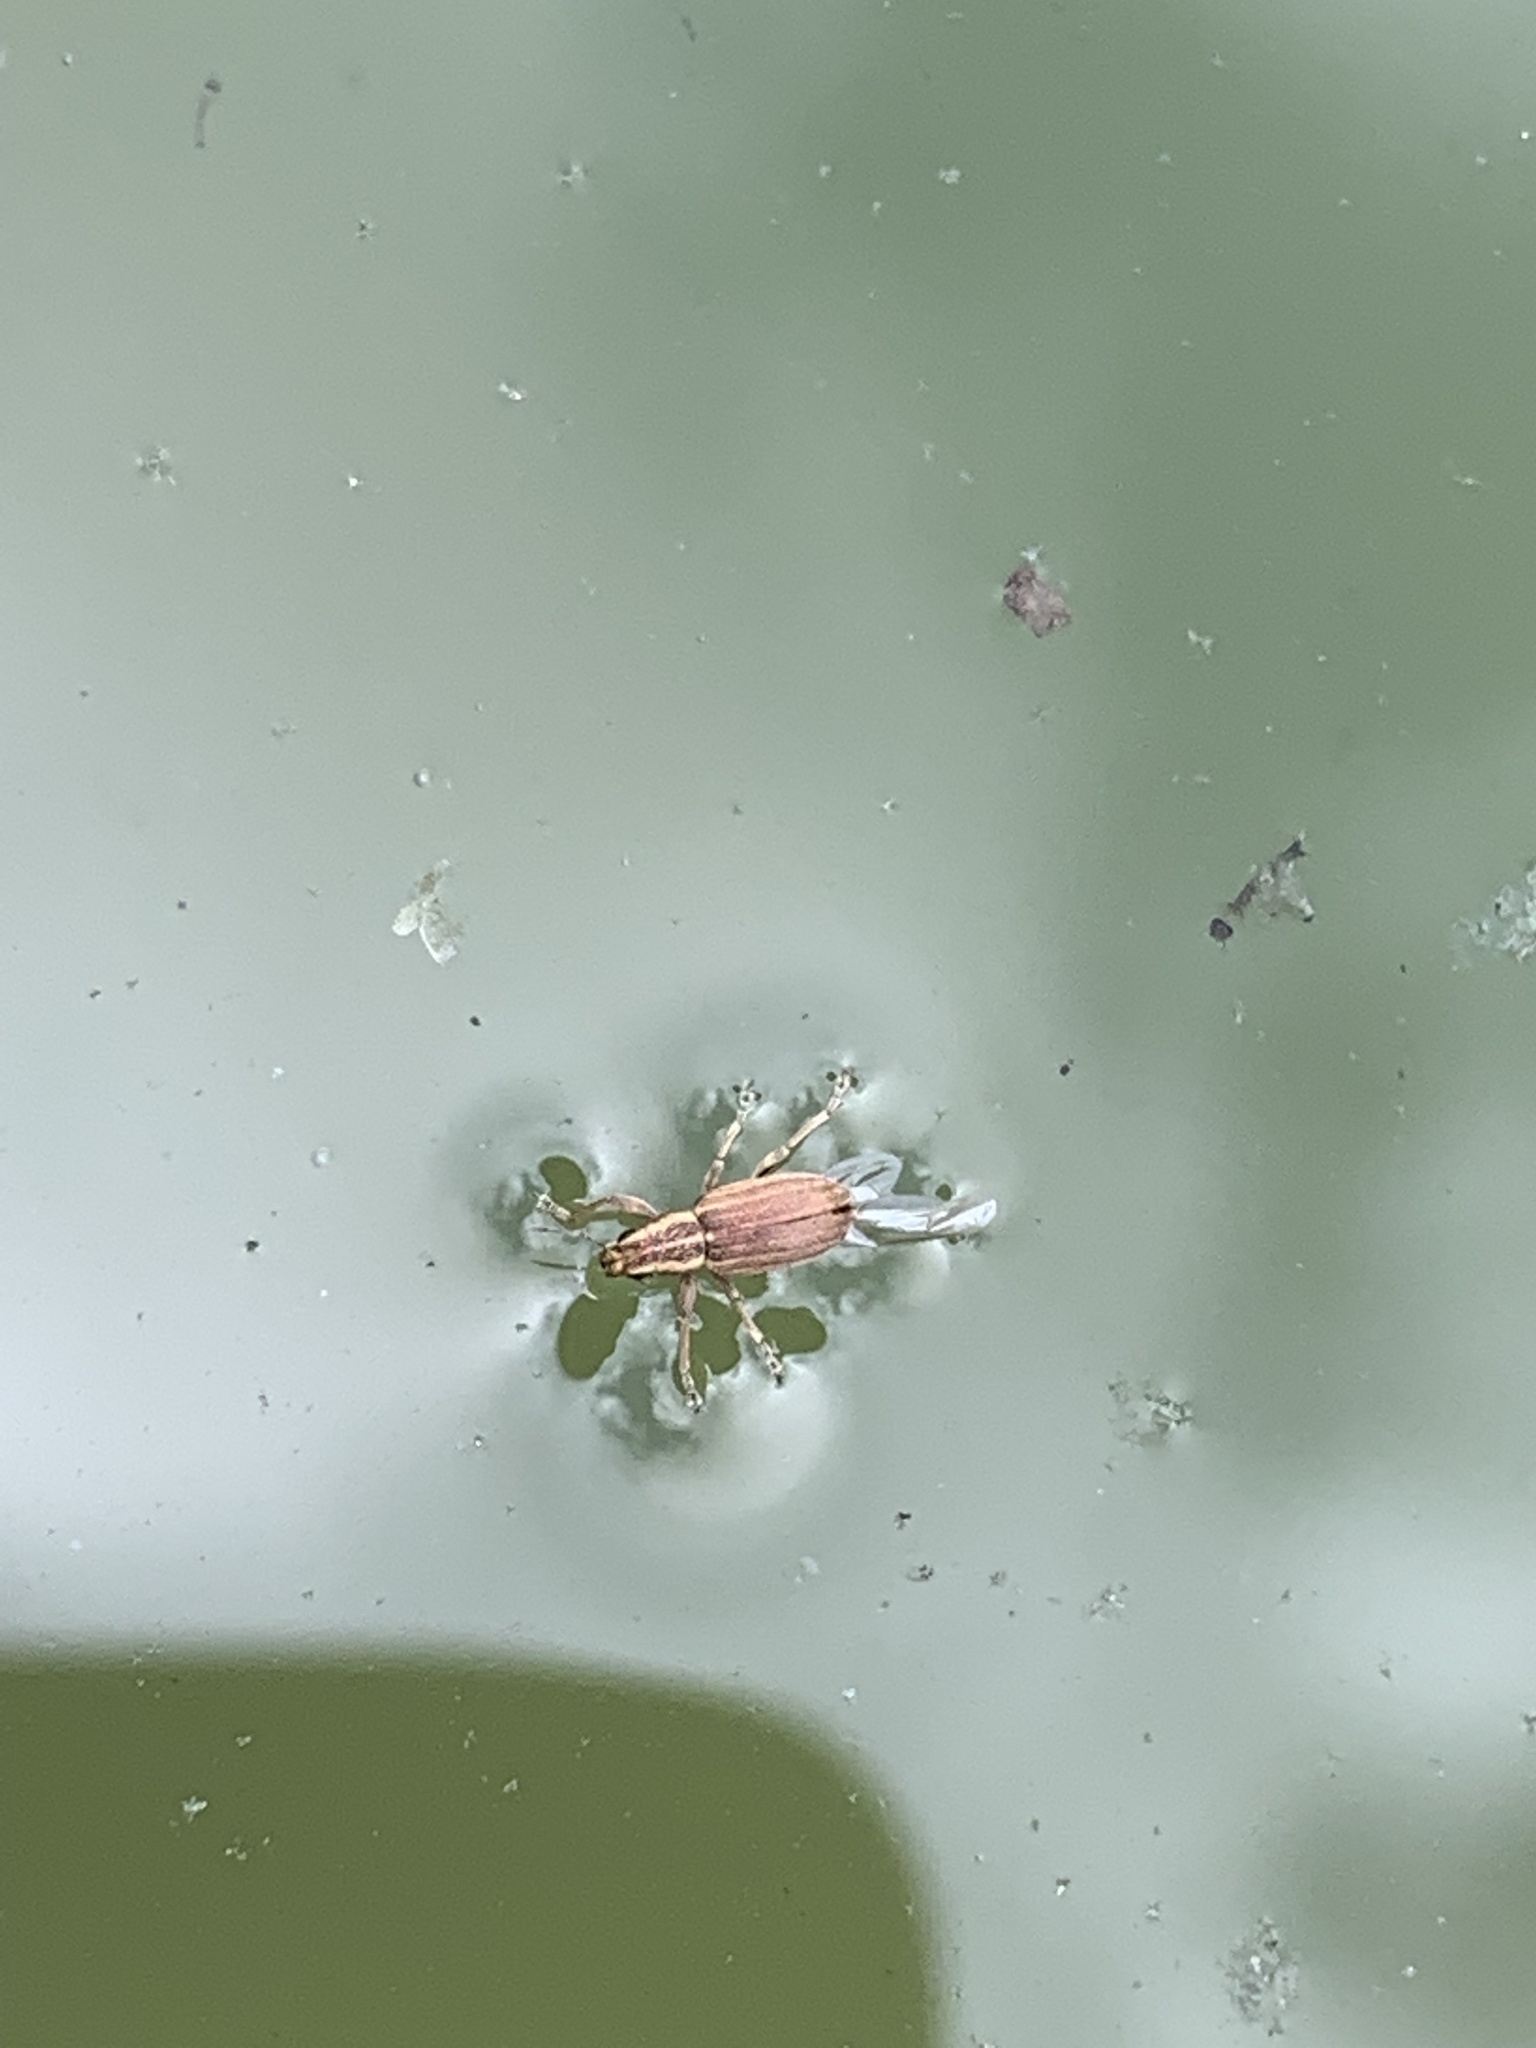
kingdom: Animalia
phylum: Arthropoda
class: Insecta
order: Coleoptera
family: Curculionidae
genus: Sitona
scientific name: Sitona lineatus
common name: Weevil
